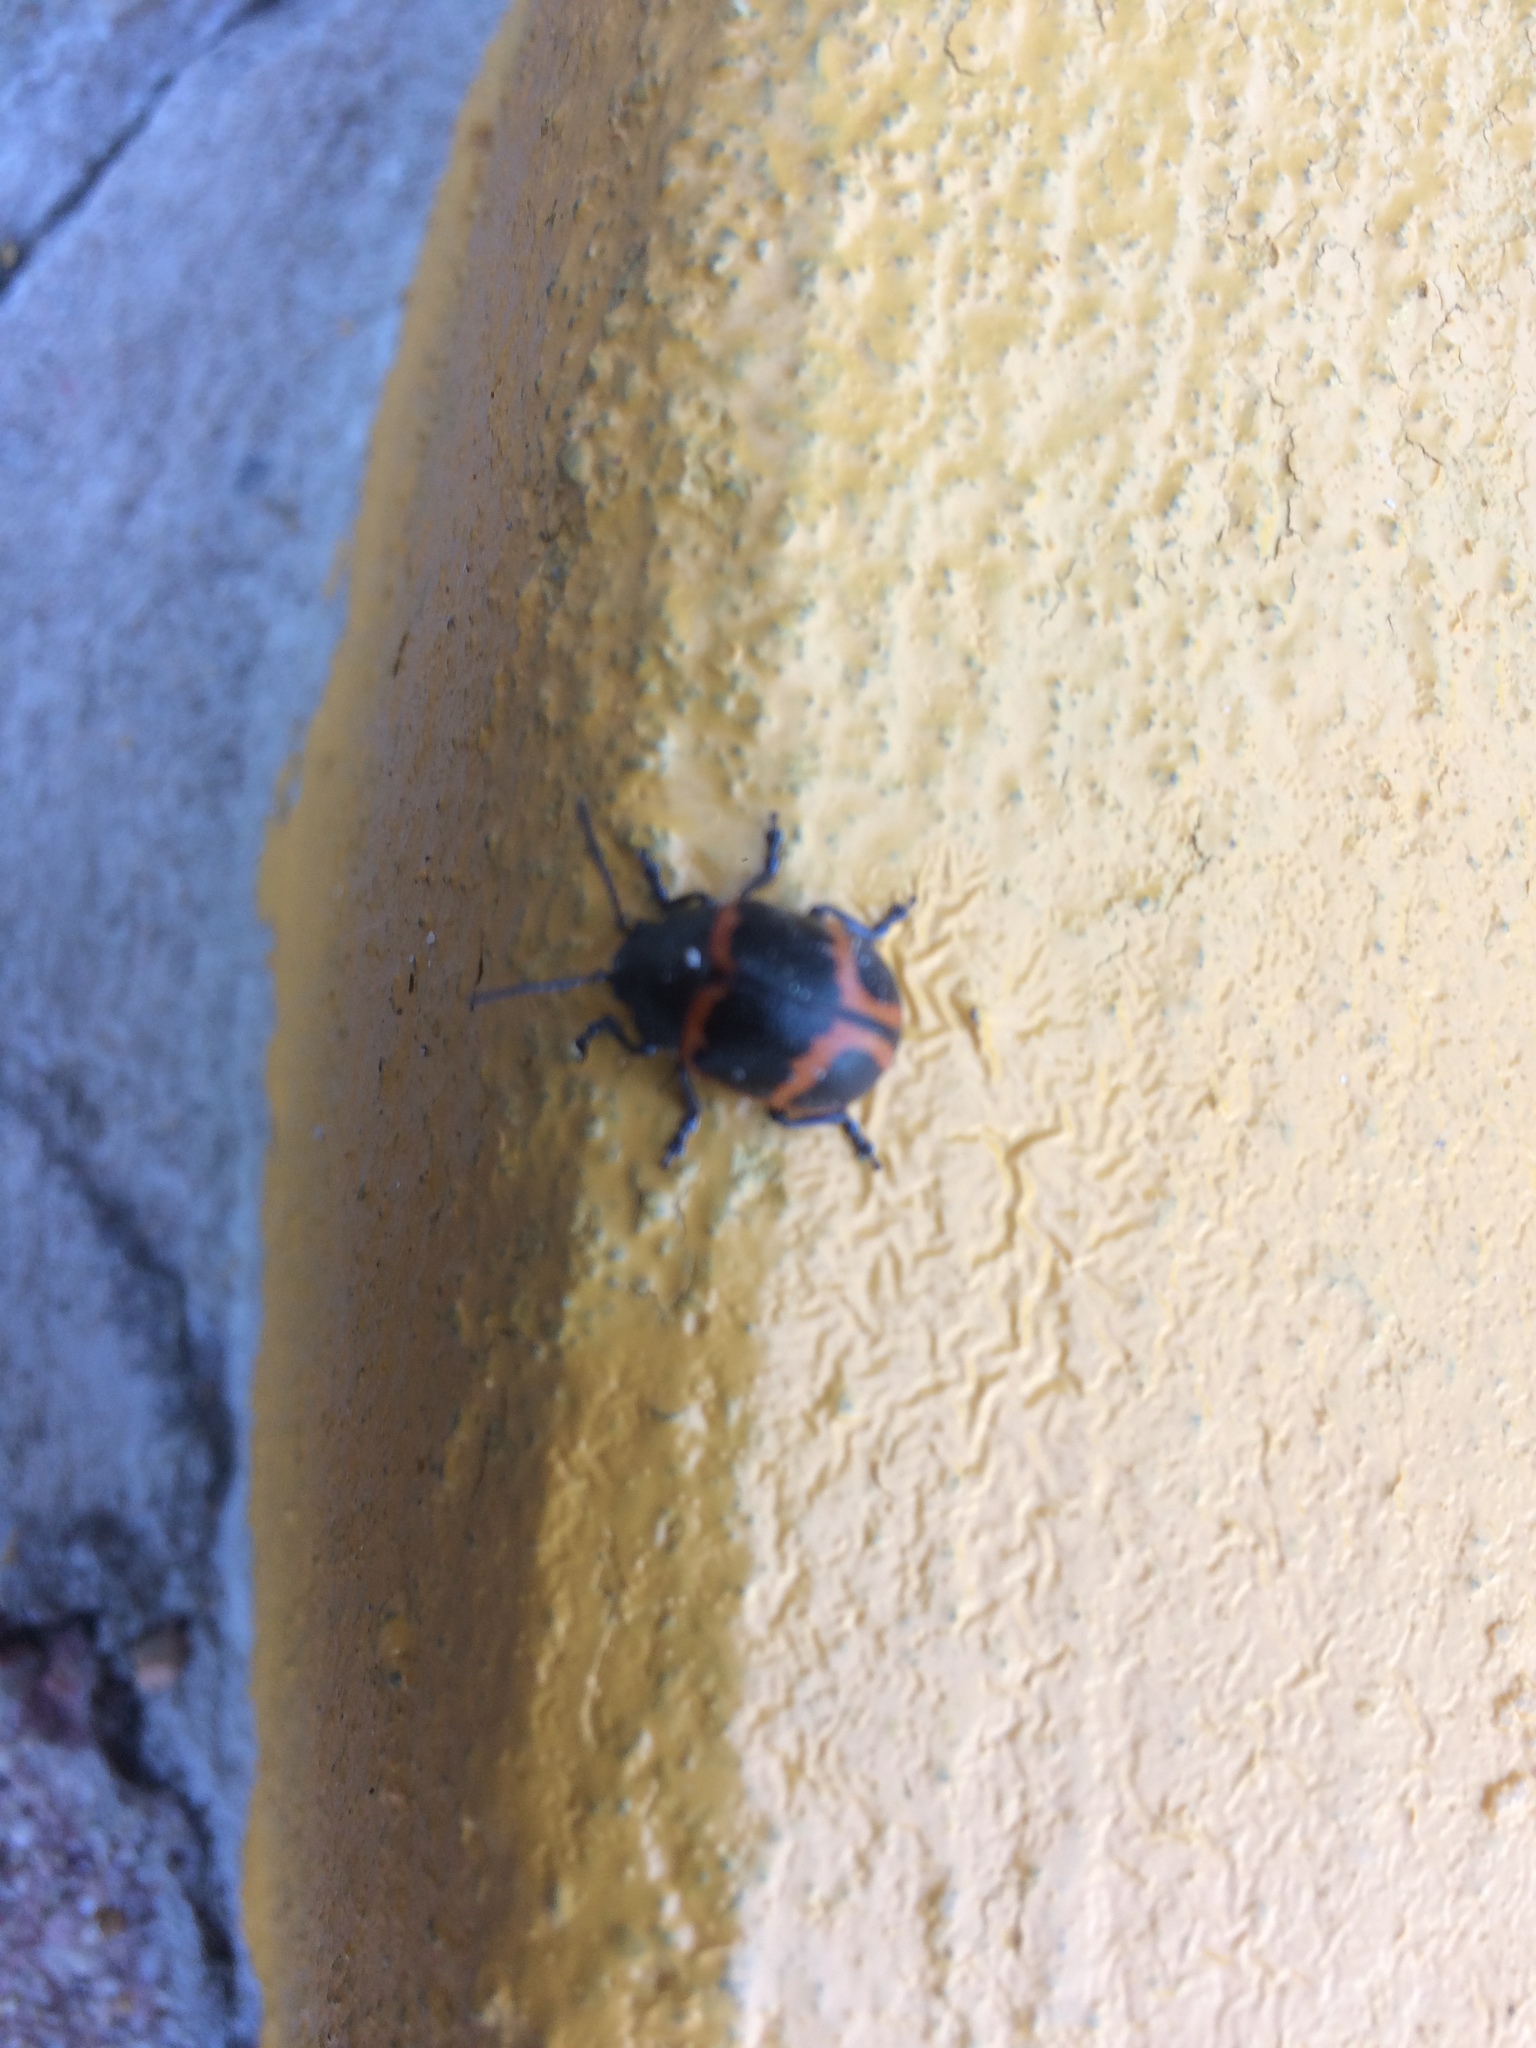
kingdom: Animalia
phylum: Arthropoda
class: Insecta
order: Coleoptera
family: Chrysomelidae
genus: Labidomera
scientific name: Labidomera clivicollis
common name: Swamp milkweed leaf beetle
